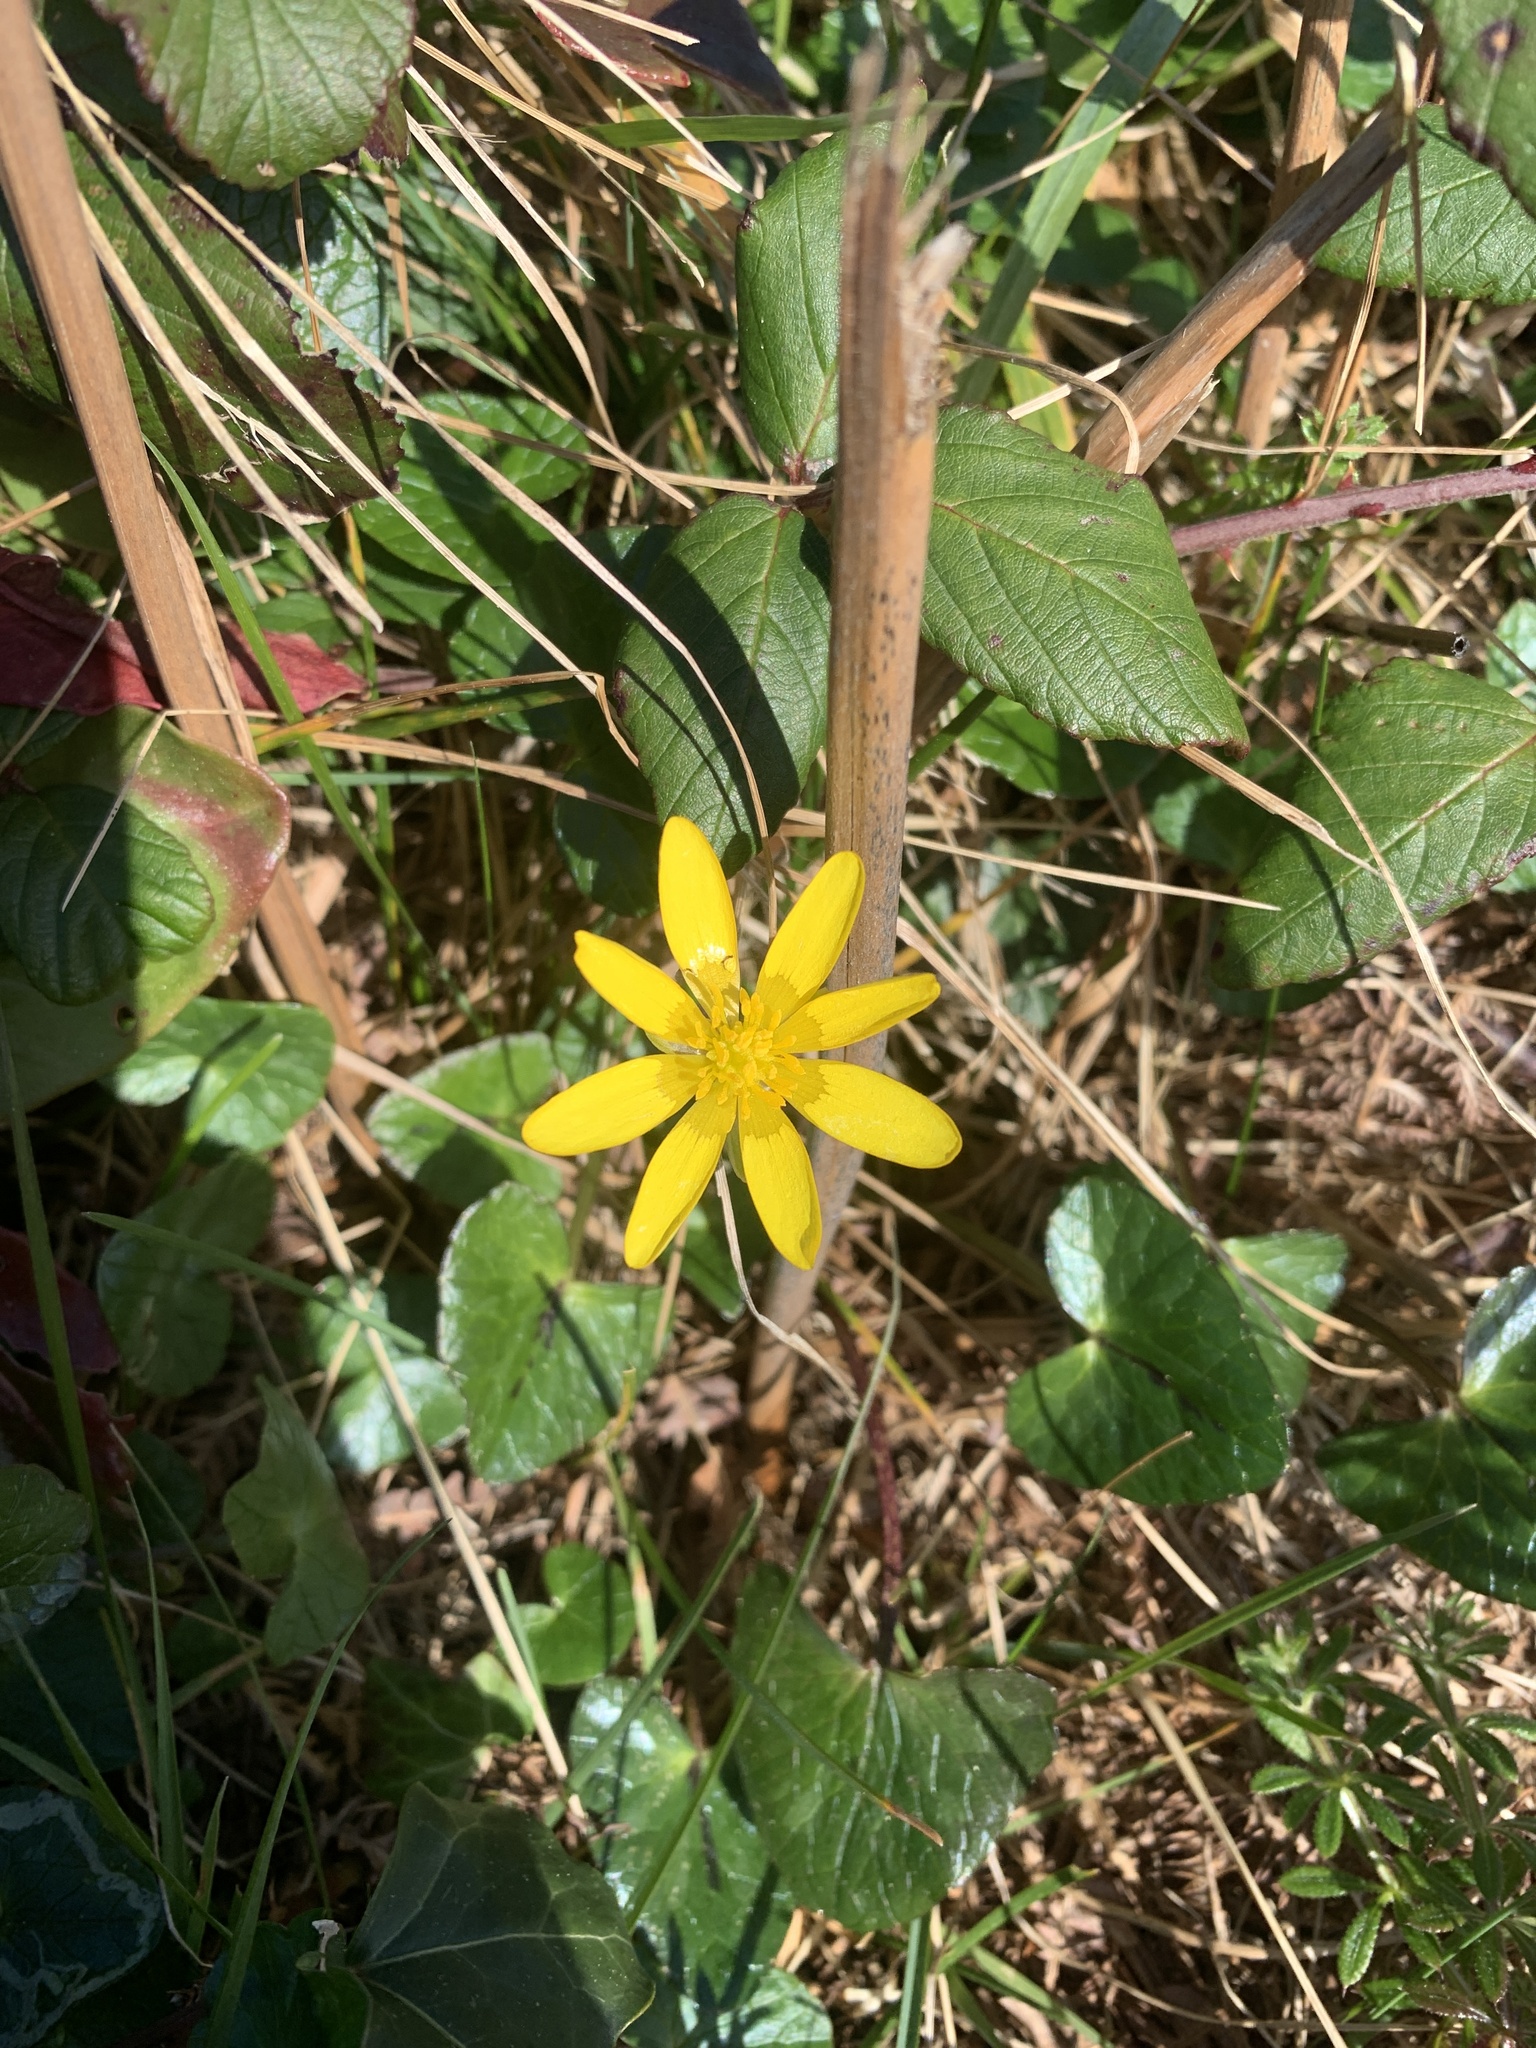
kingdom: Plantae
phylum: Tracheophyta
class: Magnoliopsida
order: Ranunculales
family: Ranunculaceae
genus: Ficaria
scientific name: Ficaria verna
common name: Lesser celandine
